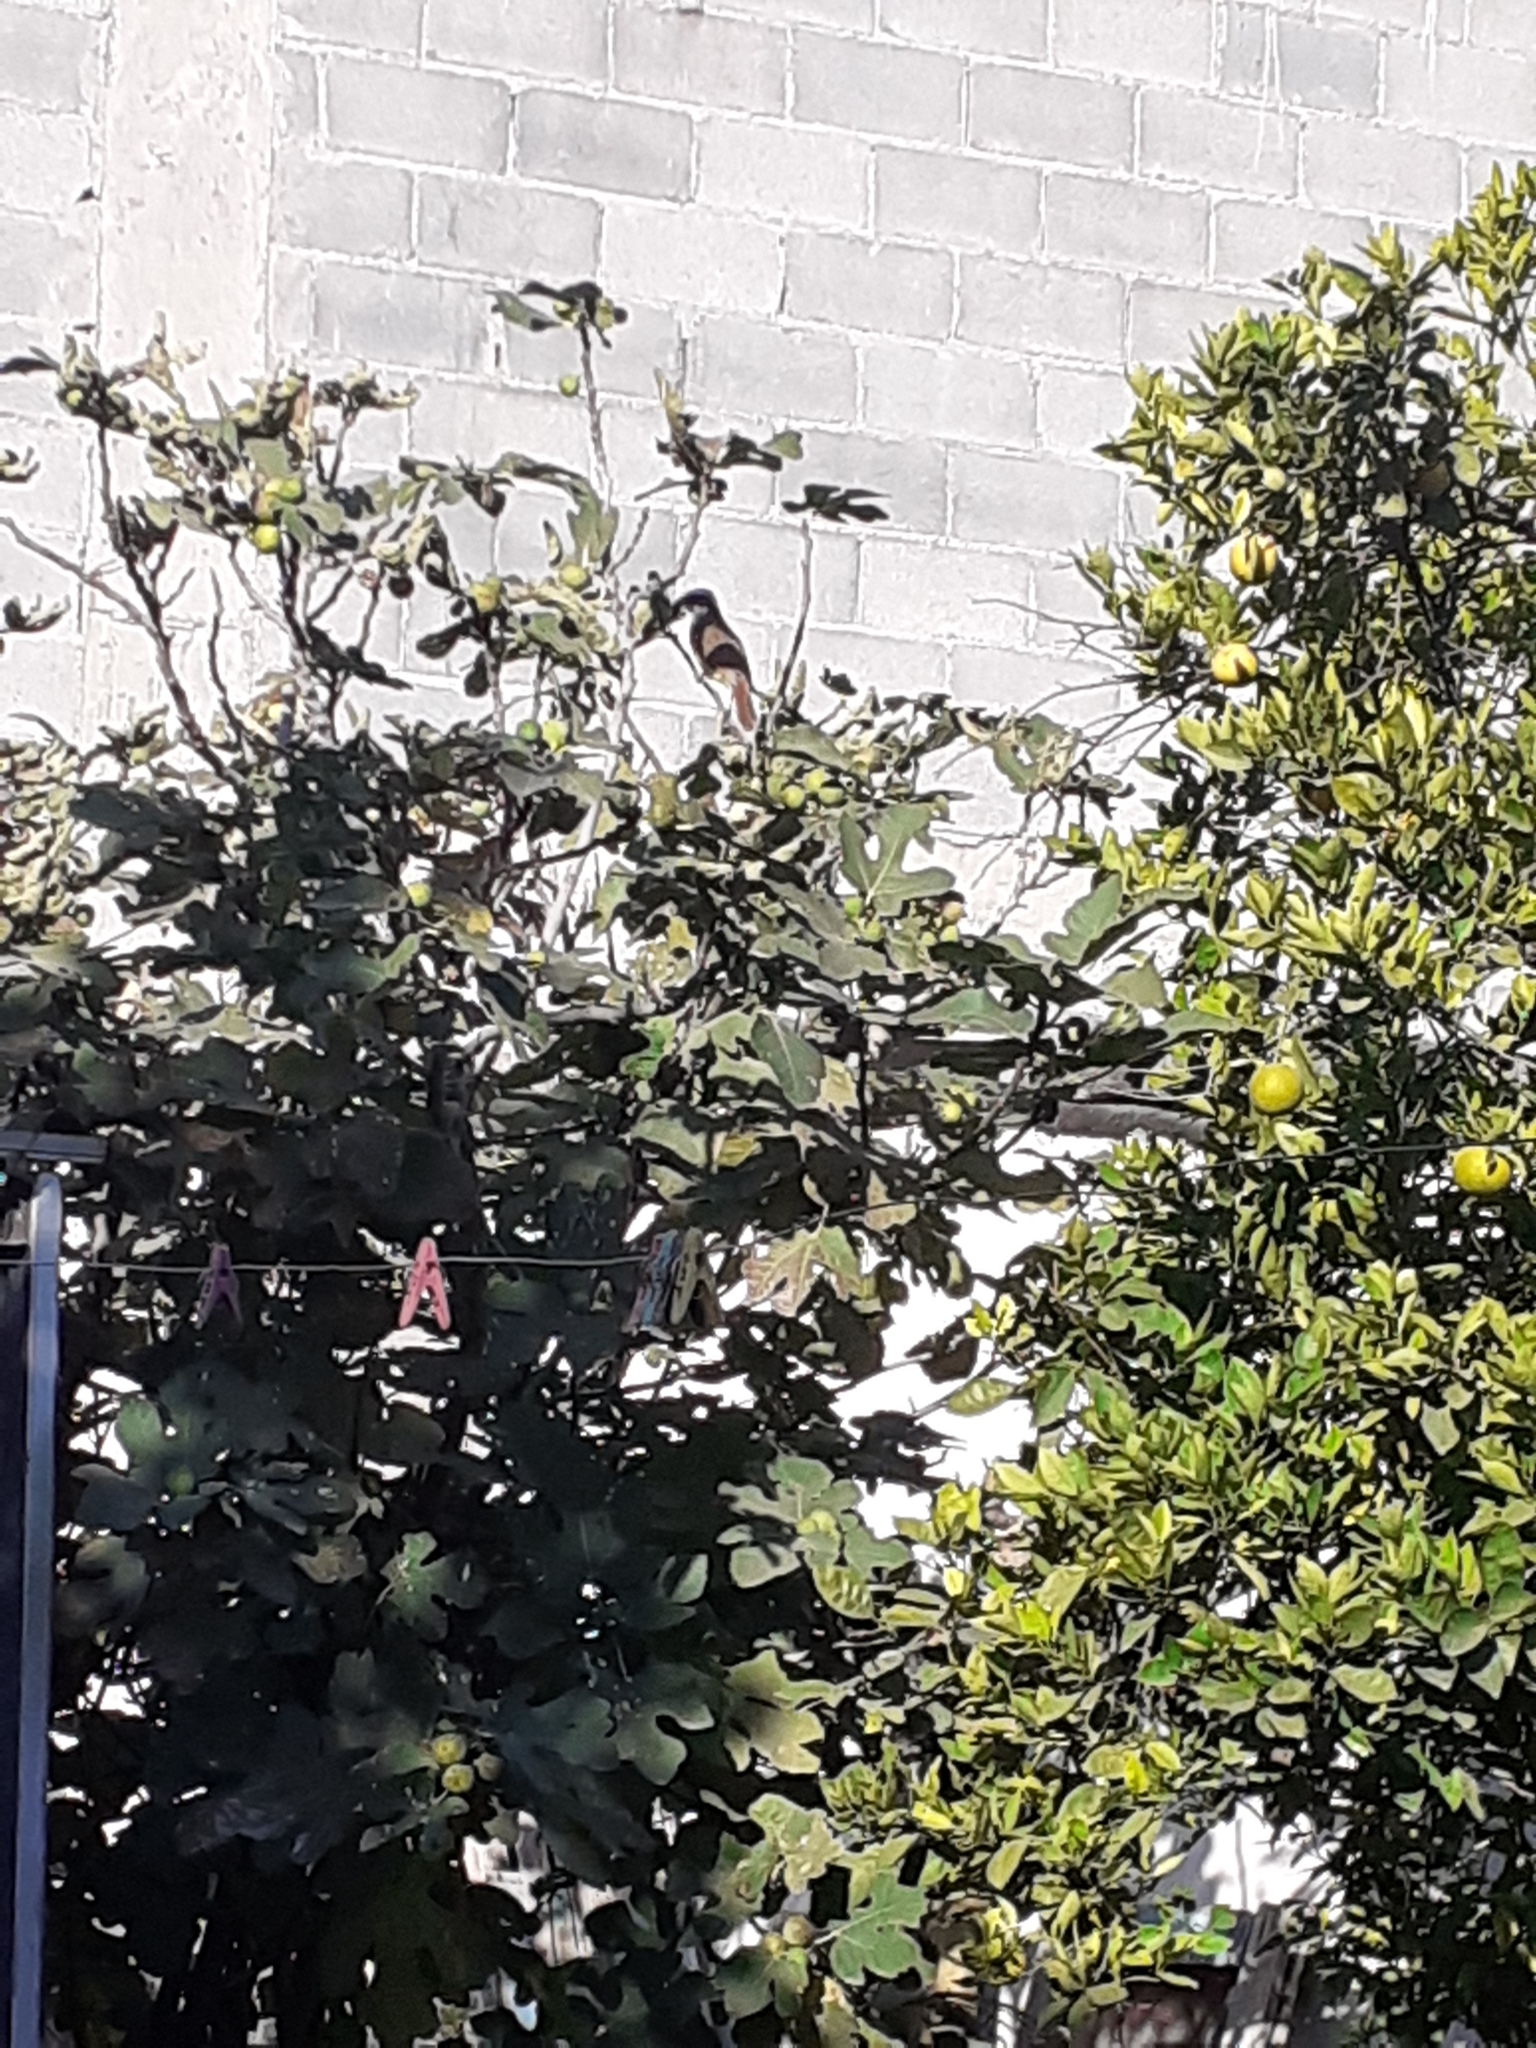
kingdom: Animalia
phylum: Chordata
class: Aves
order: Passeriformes
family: Tyrannidae
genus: Pitangus
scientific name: Pitangus sulphuratus
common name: Great kiskadee
